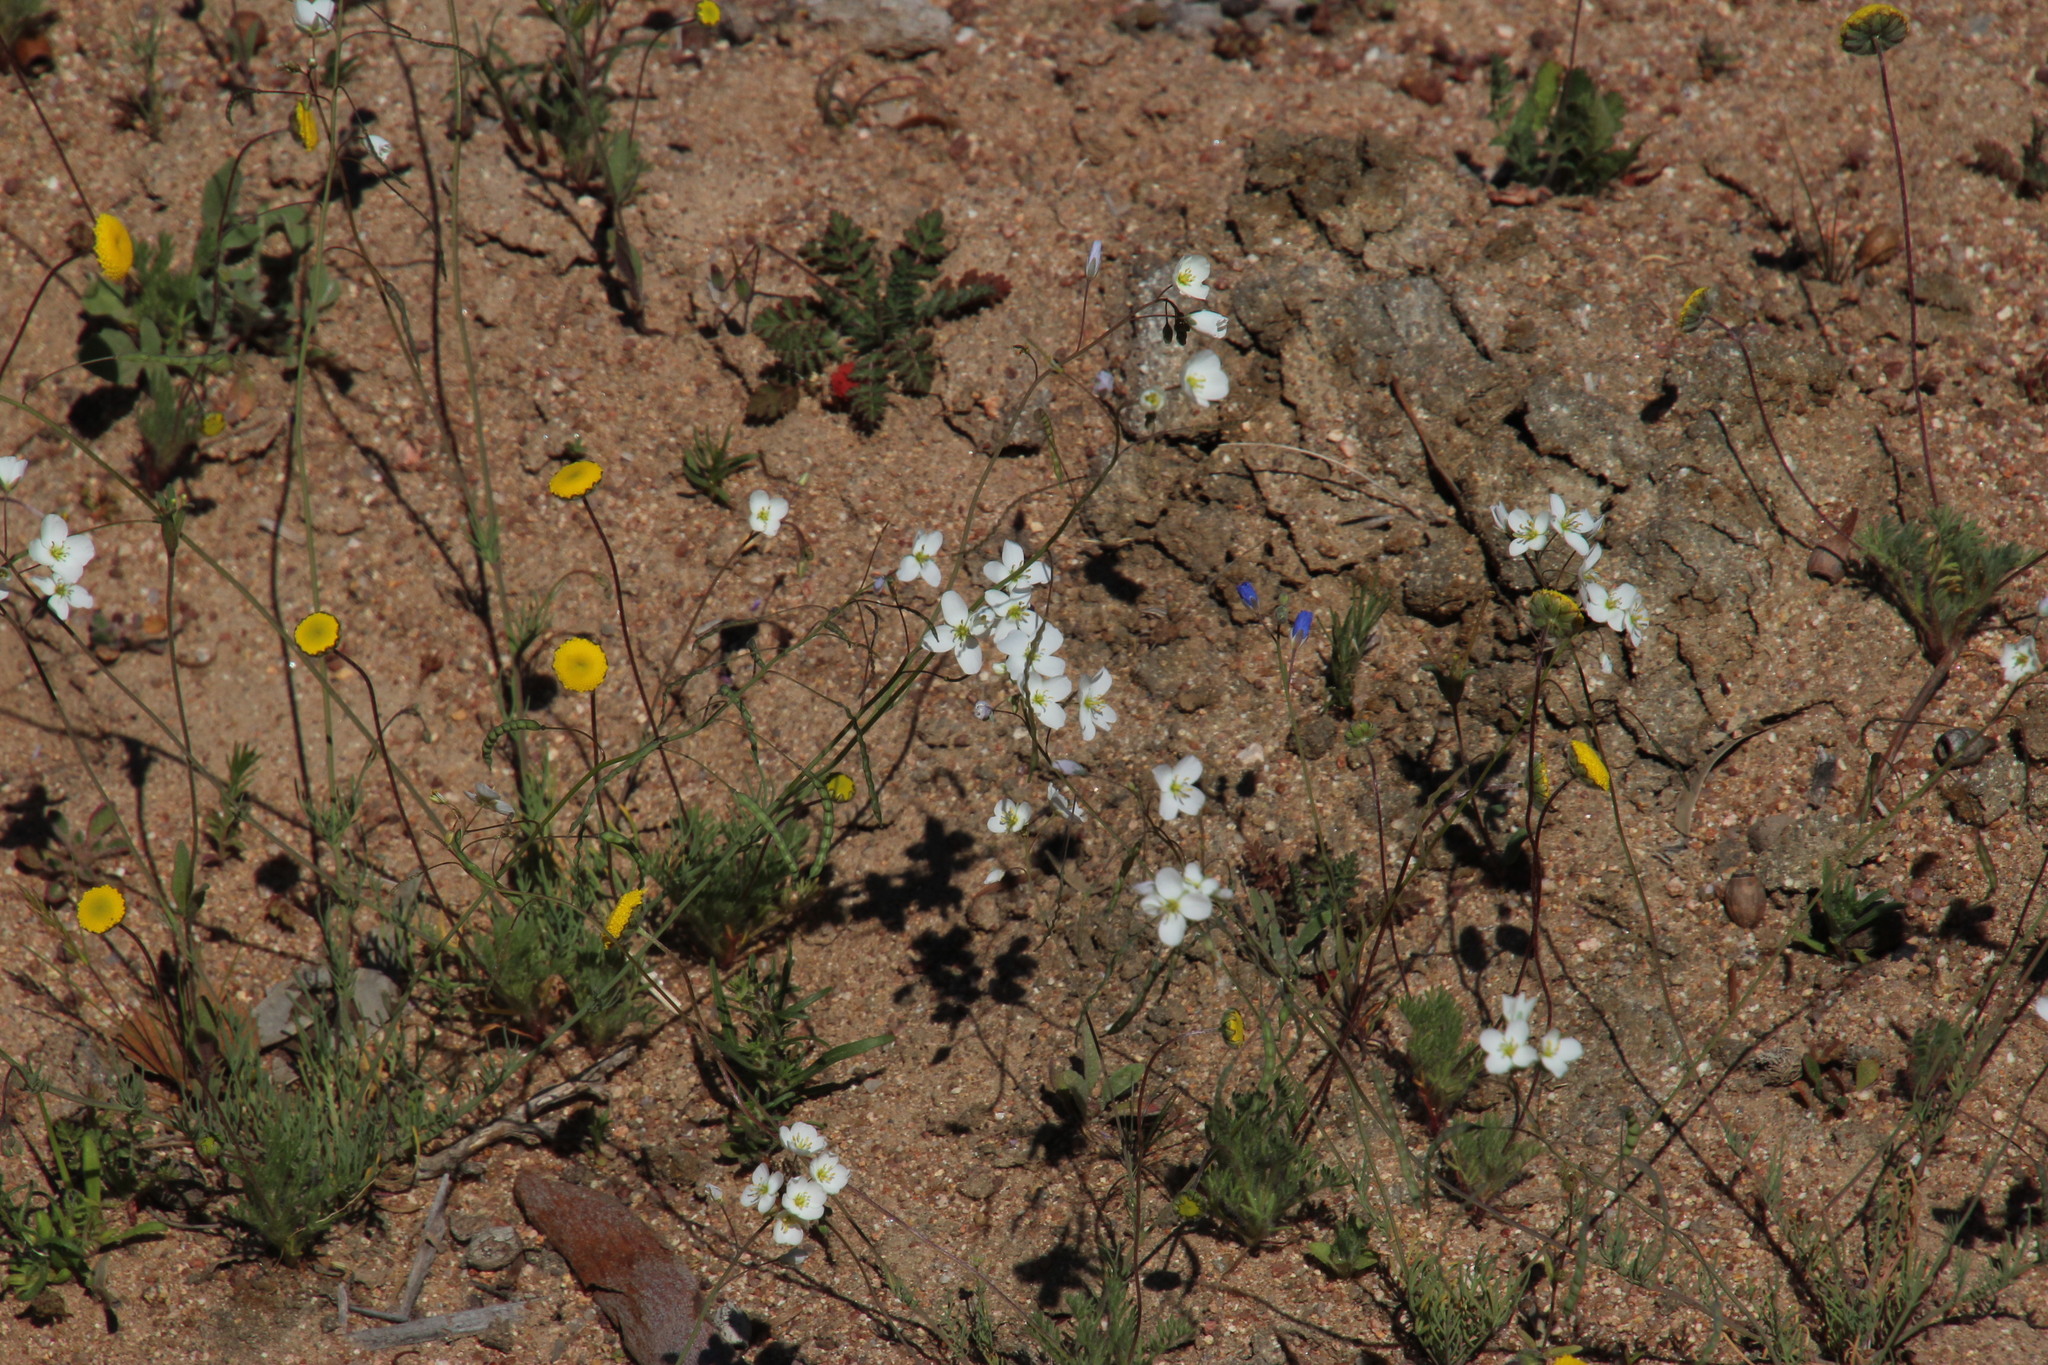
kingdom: Plantae
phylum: Tracheophyta
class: Magnoliopsida
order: Brassicales
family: Brassicaceae
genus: Heliophila
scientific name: Heliophila seselifolia
